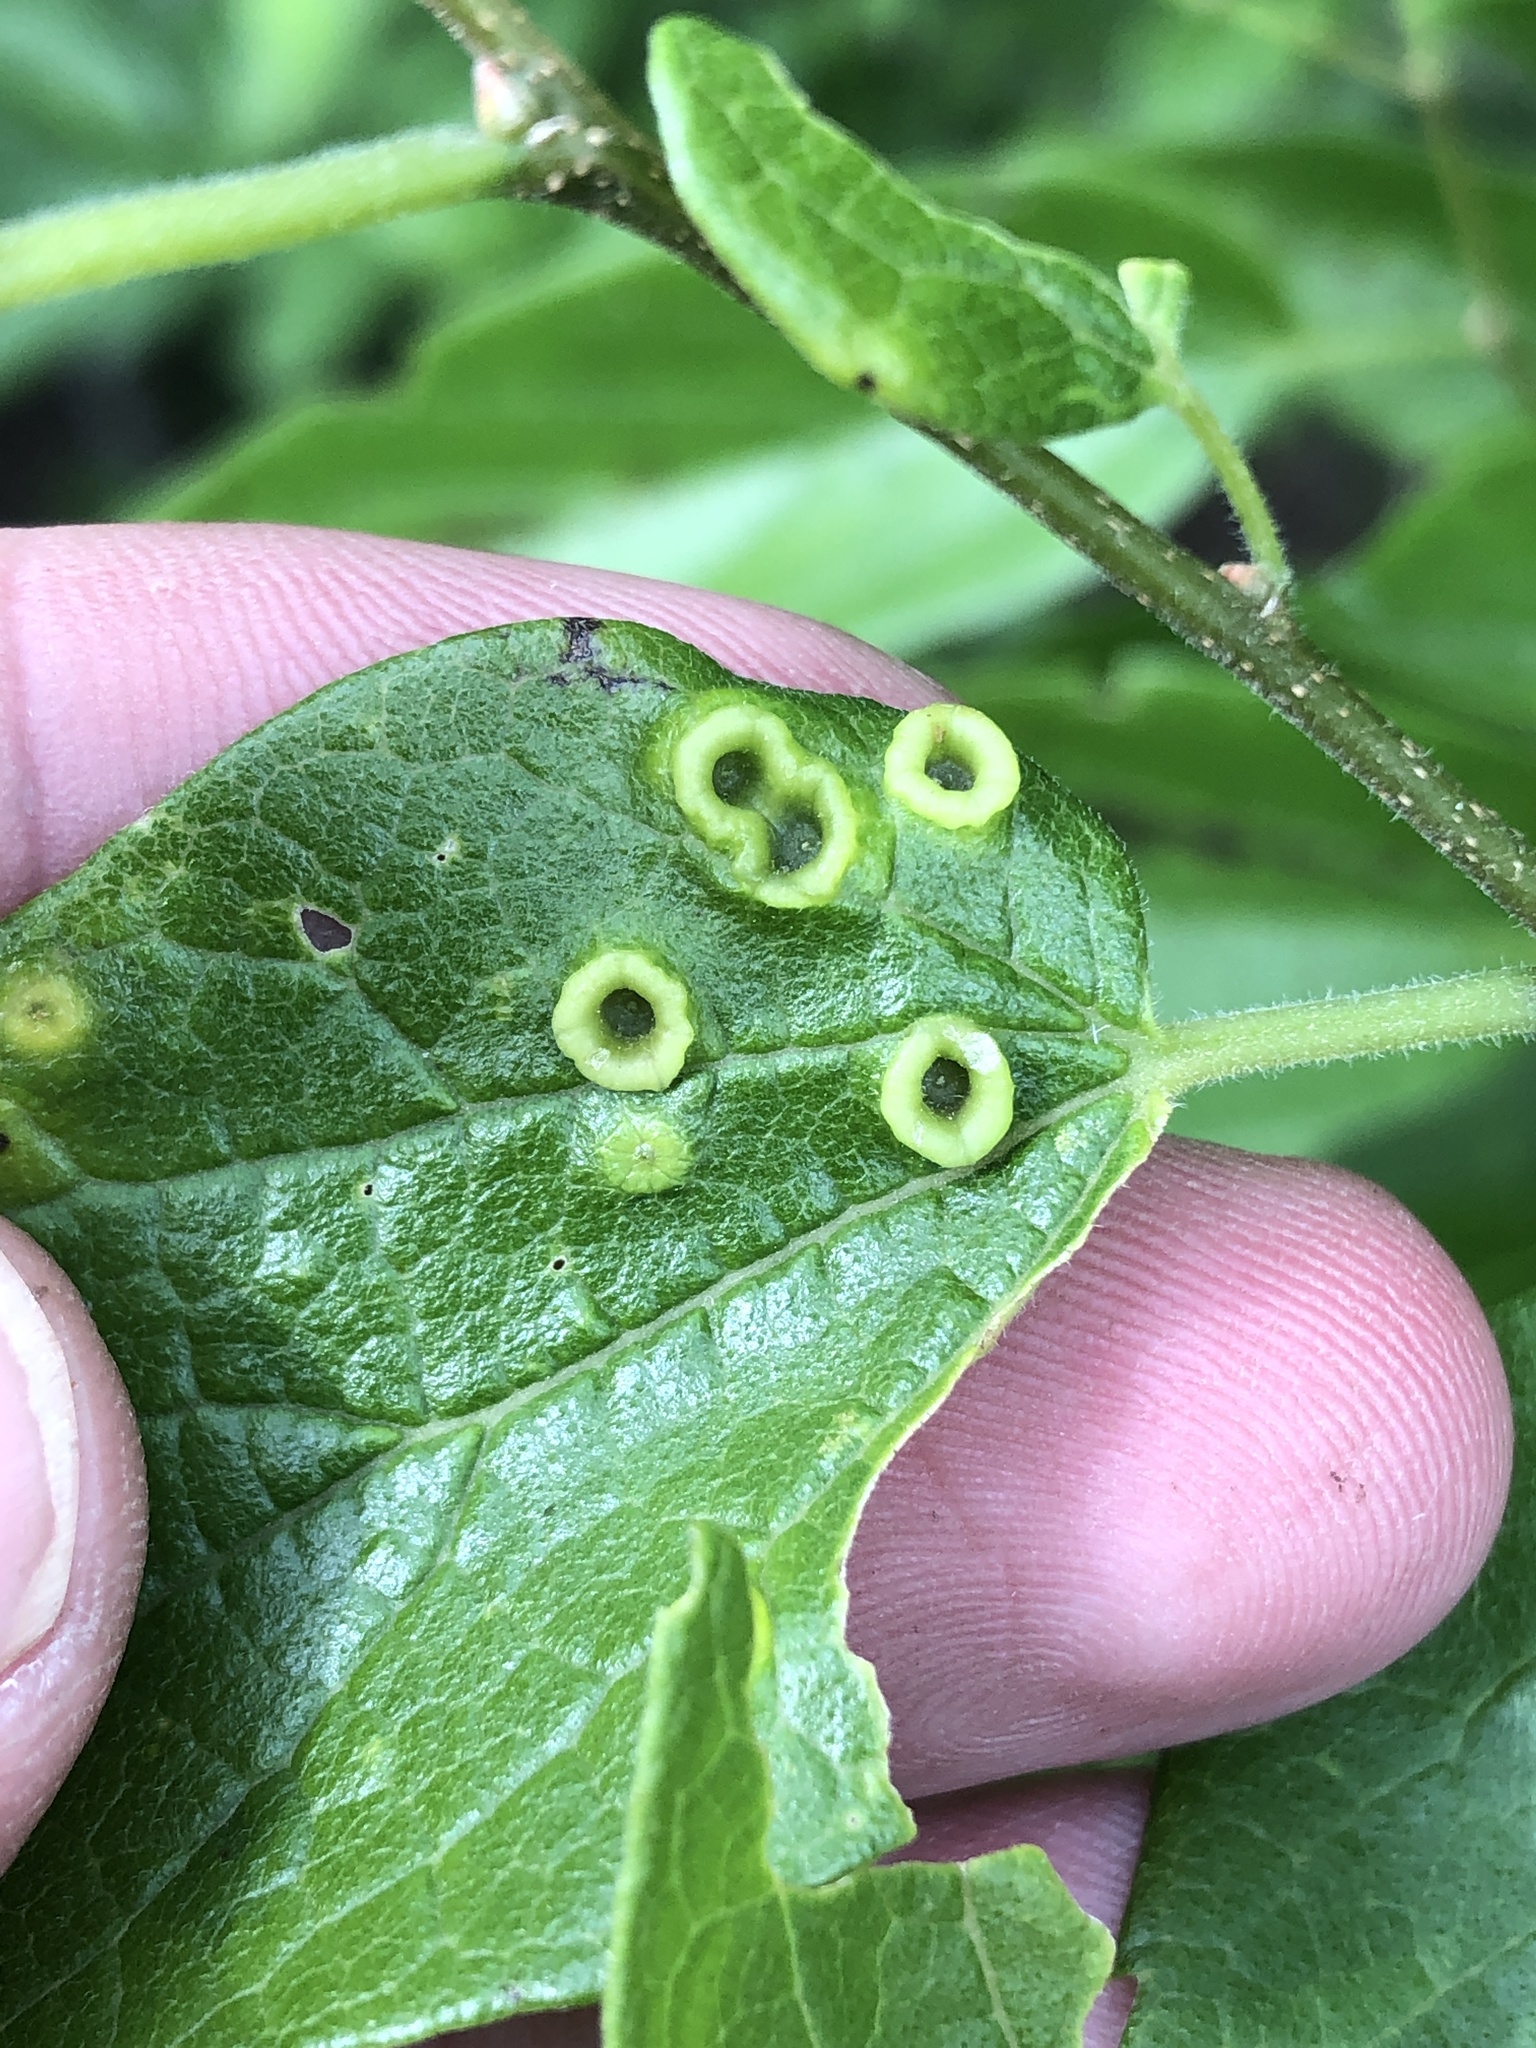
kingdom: Animalia
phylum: Arthropoda
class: Insecta
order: Hemiptera
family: Aphalaridae
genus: Pachypsylla
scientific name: Pachypsylla celtidismamma
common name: Hackberry nipplegall psyllid
